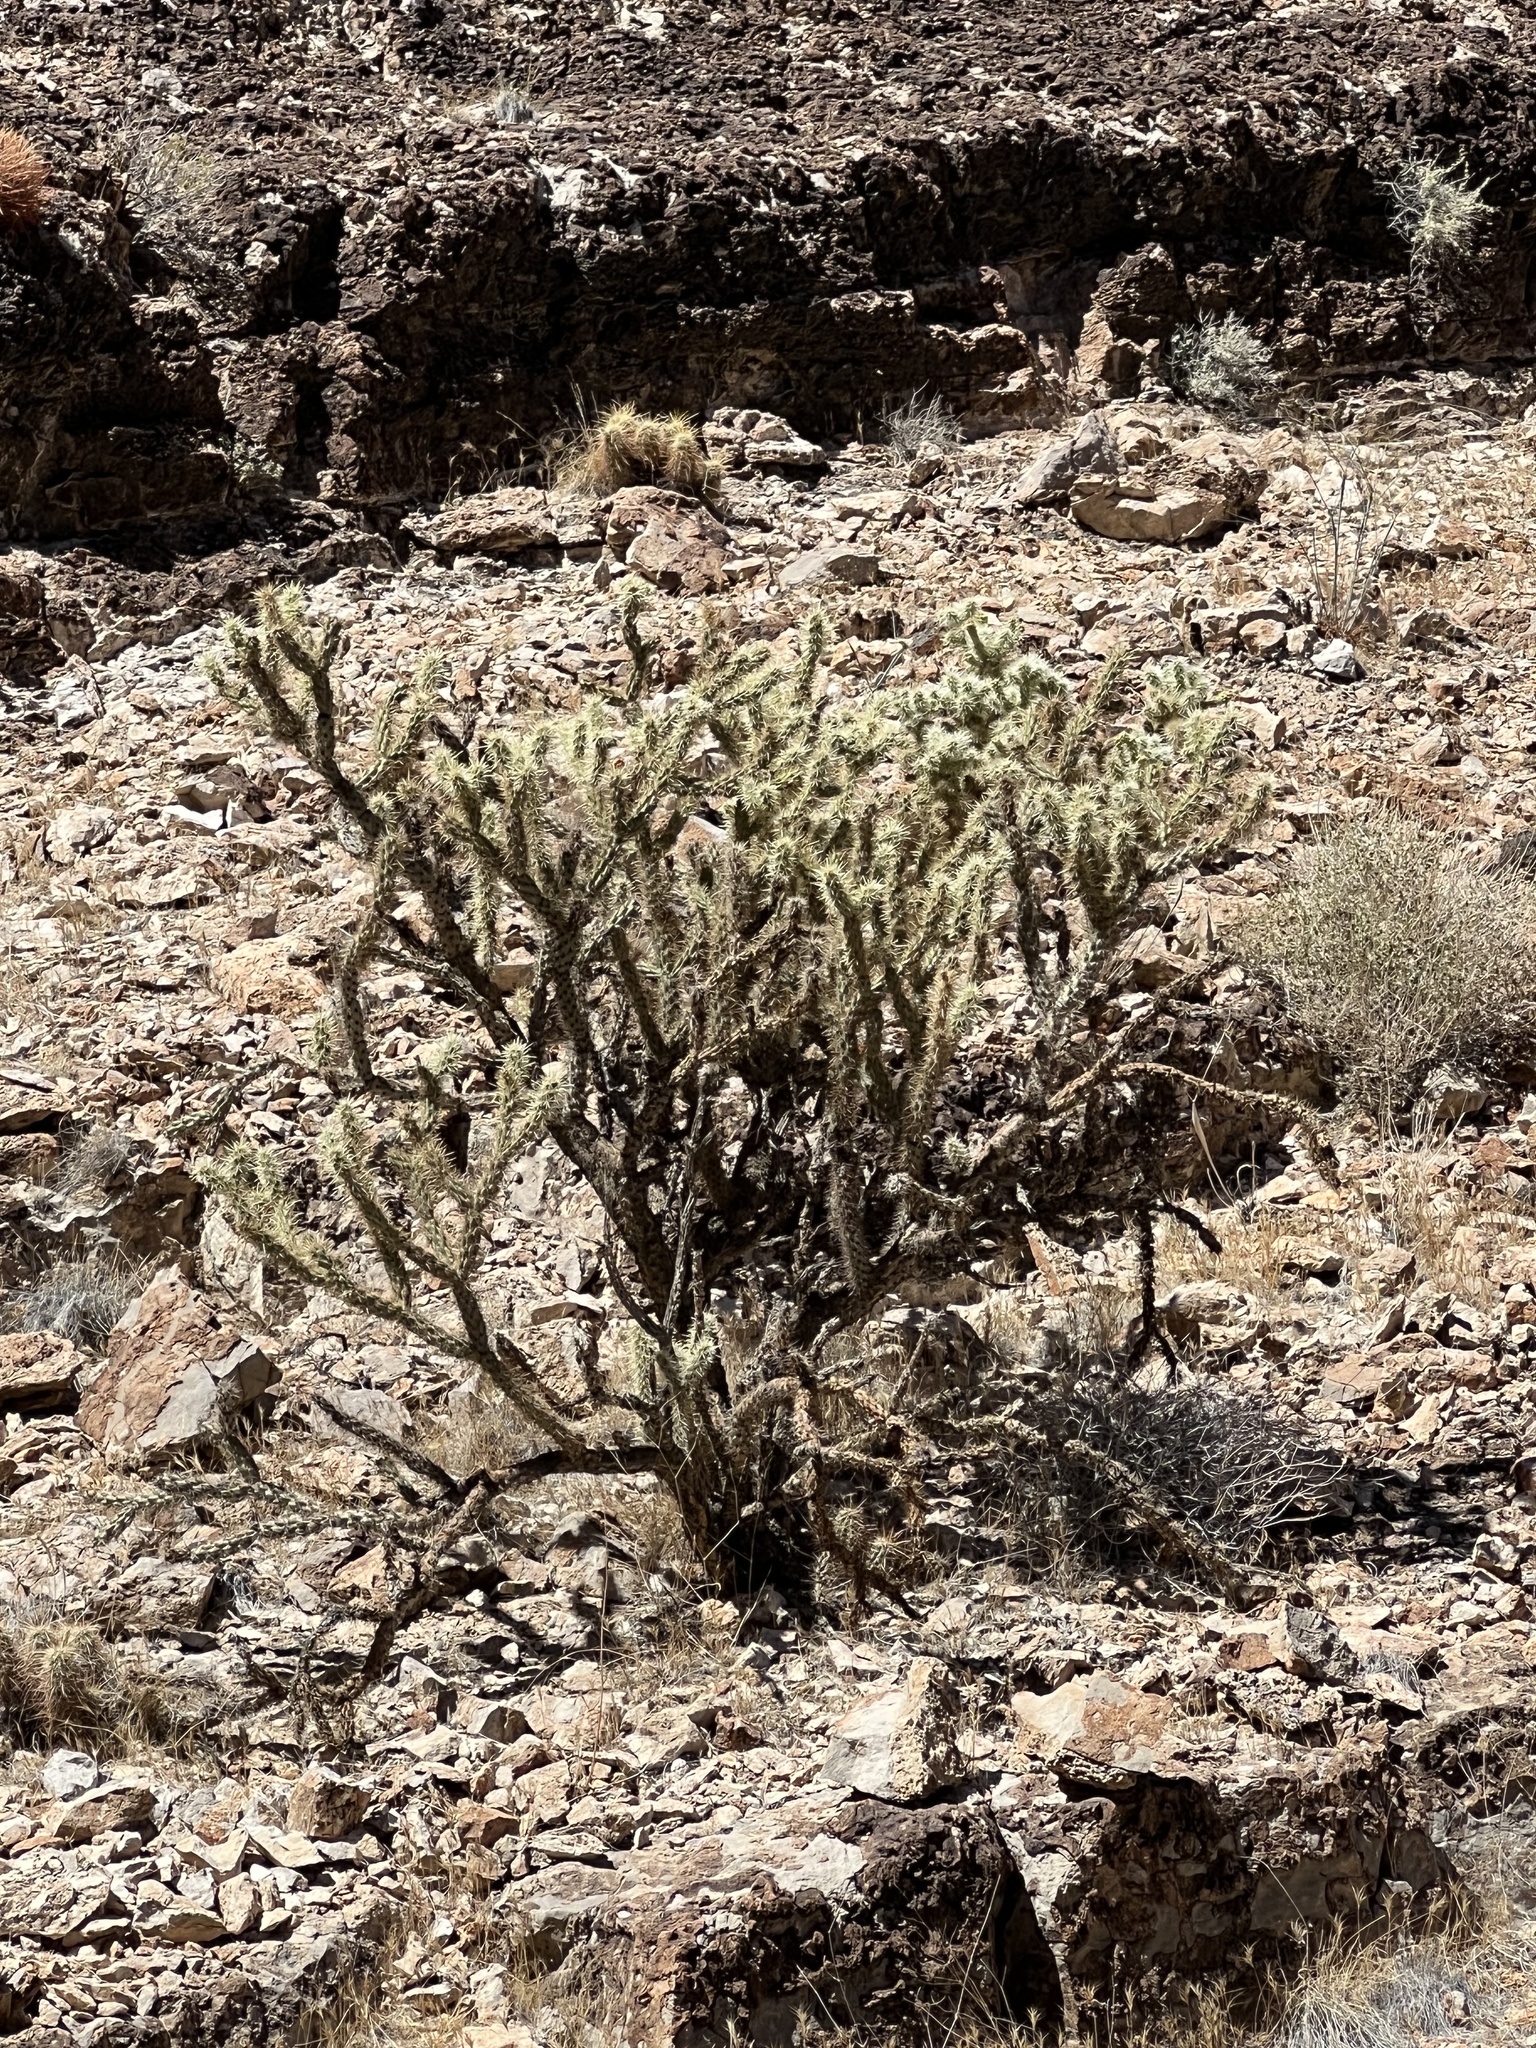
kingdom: Plantae
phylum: Tracheophyta
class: Magnoliopsida
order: Caryophyllales
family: Cactaceae
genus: Cylindropuntia
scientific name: Cylindropuntia acanthocarpa
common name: Buckhorn cholla
